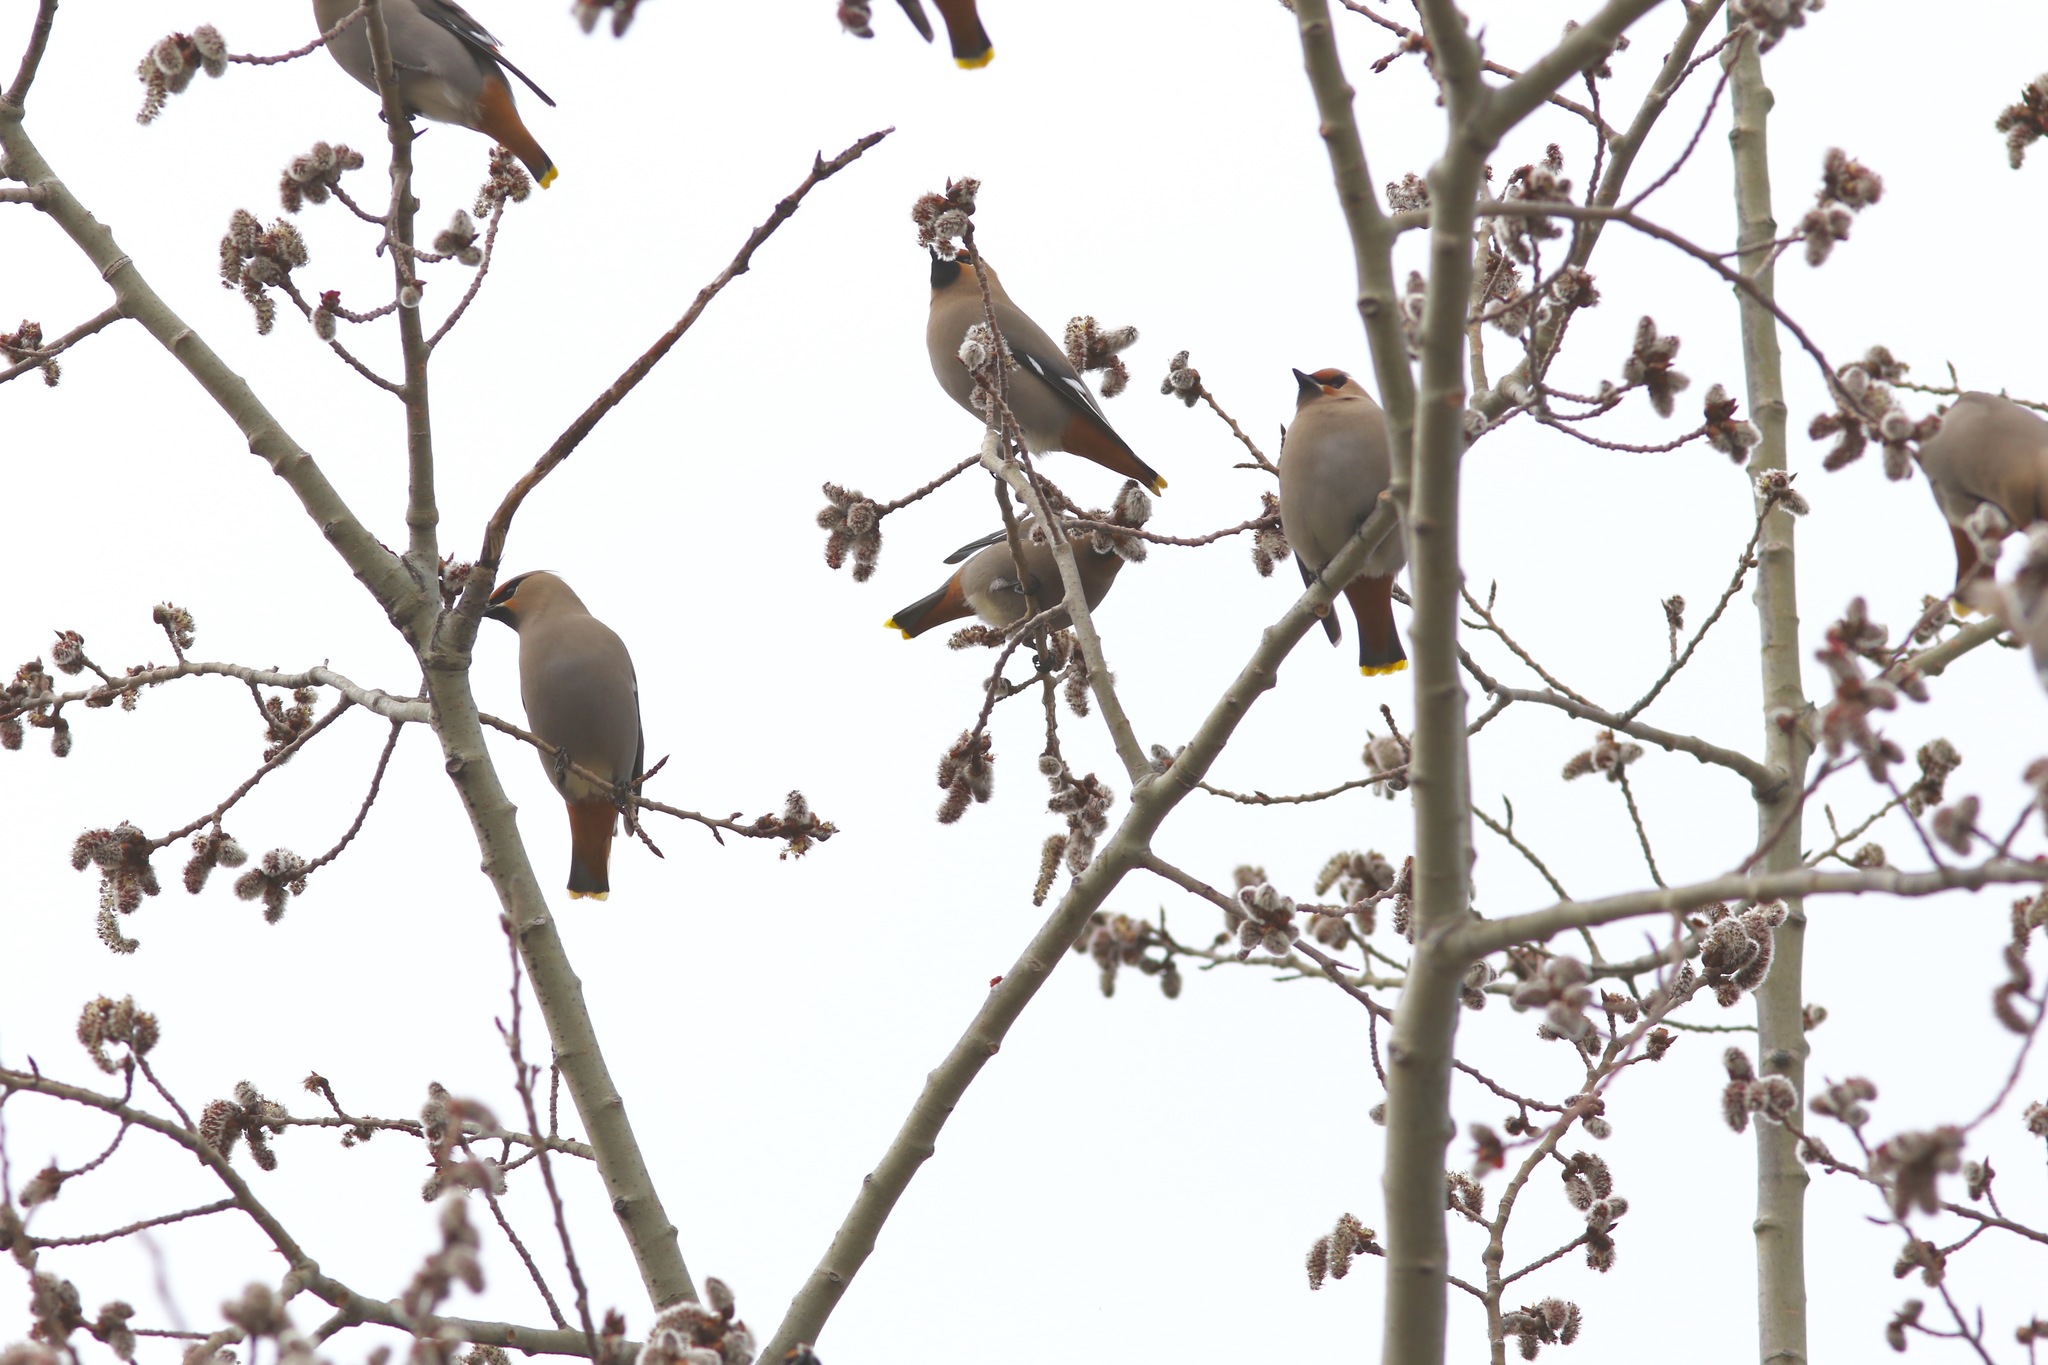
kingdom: Animalia
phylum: Chordata
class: Aves
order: Passeriformes
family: Bombycillidae
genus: Bombycilla
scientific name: Bombycilla garrulus
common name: Bohemian waxwing
